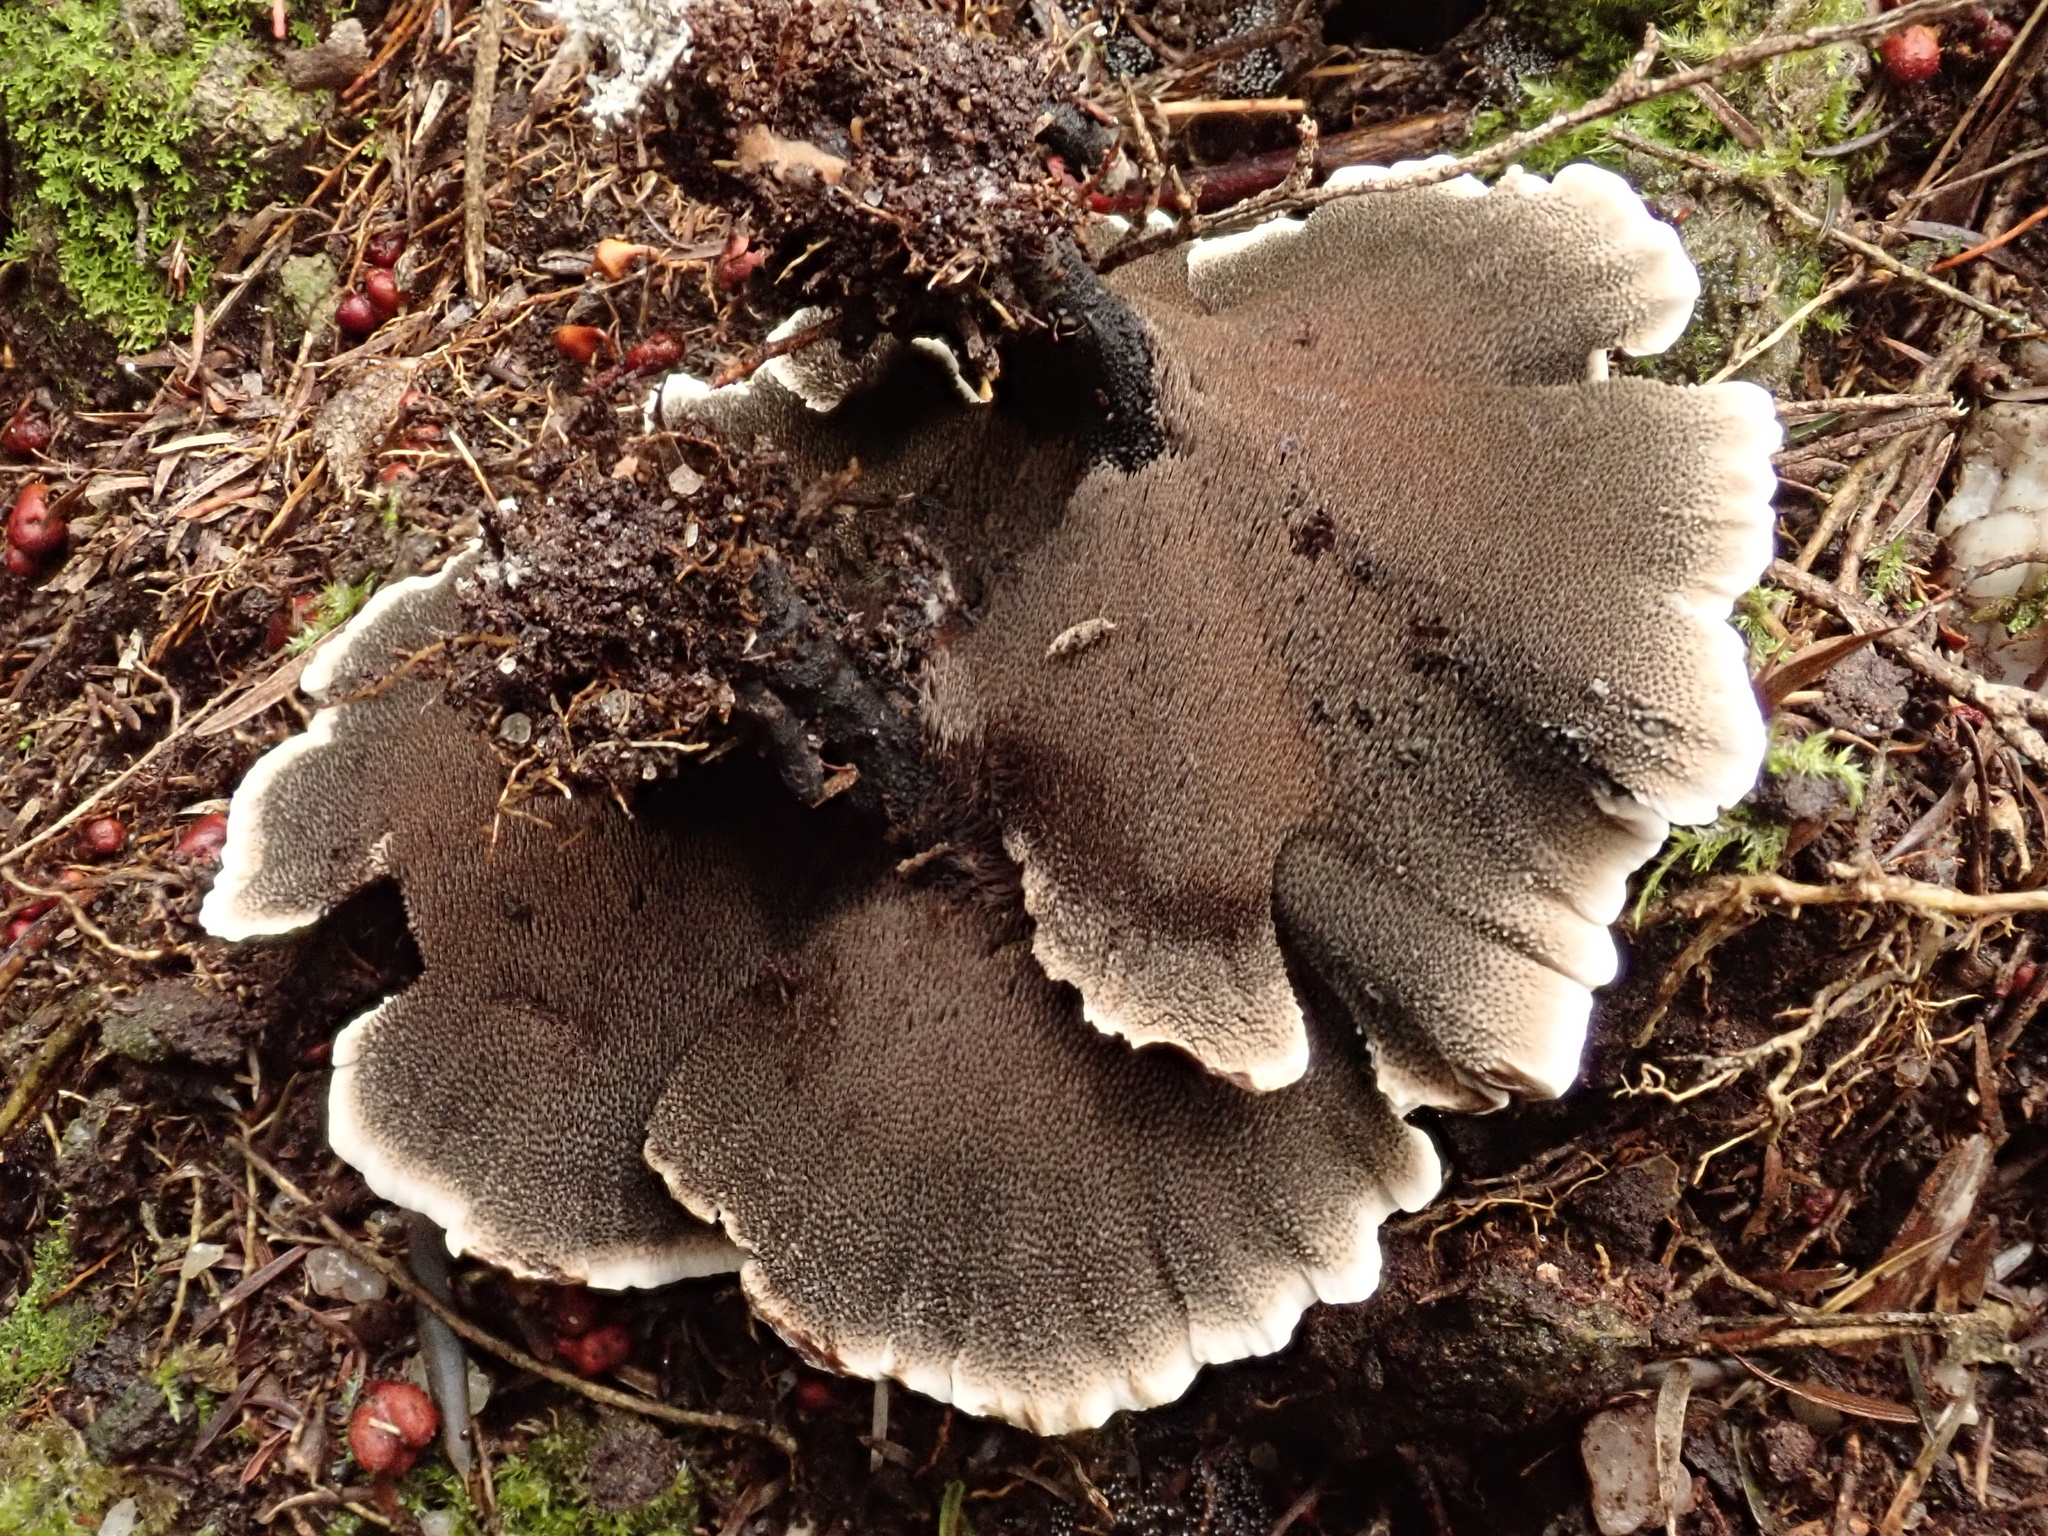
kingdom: Fungi
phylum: Basidiomycota
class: Agaricomycetes
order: Thelephorales
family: Thelephoraceae
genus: Phellodon
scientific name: Phellodon niger
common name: Black tooth
